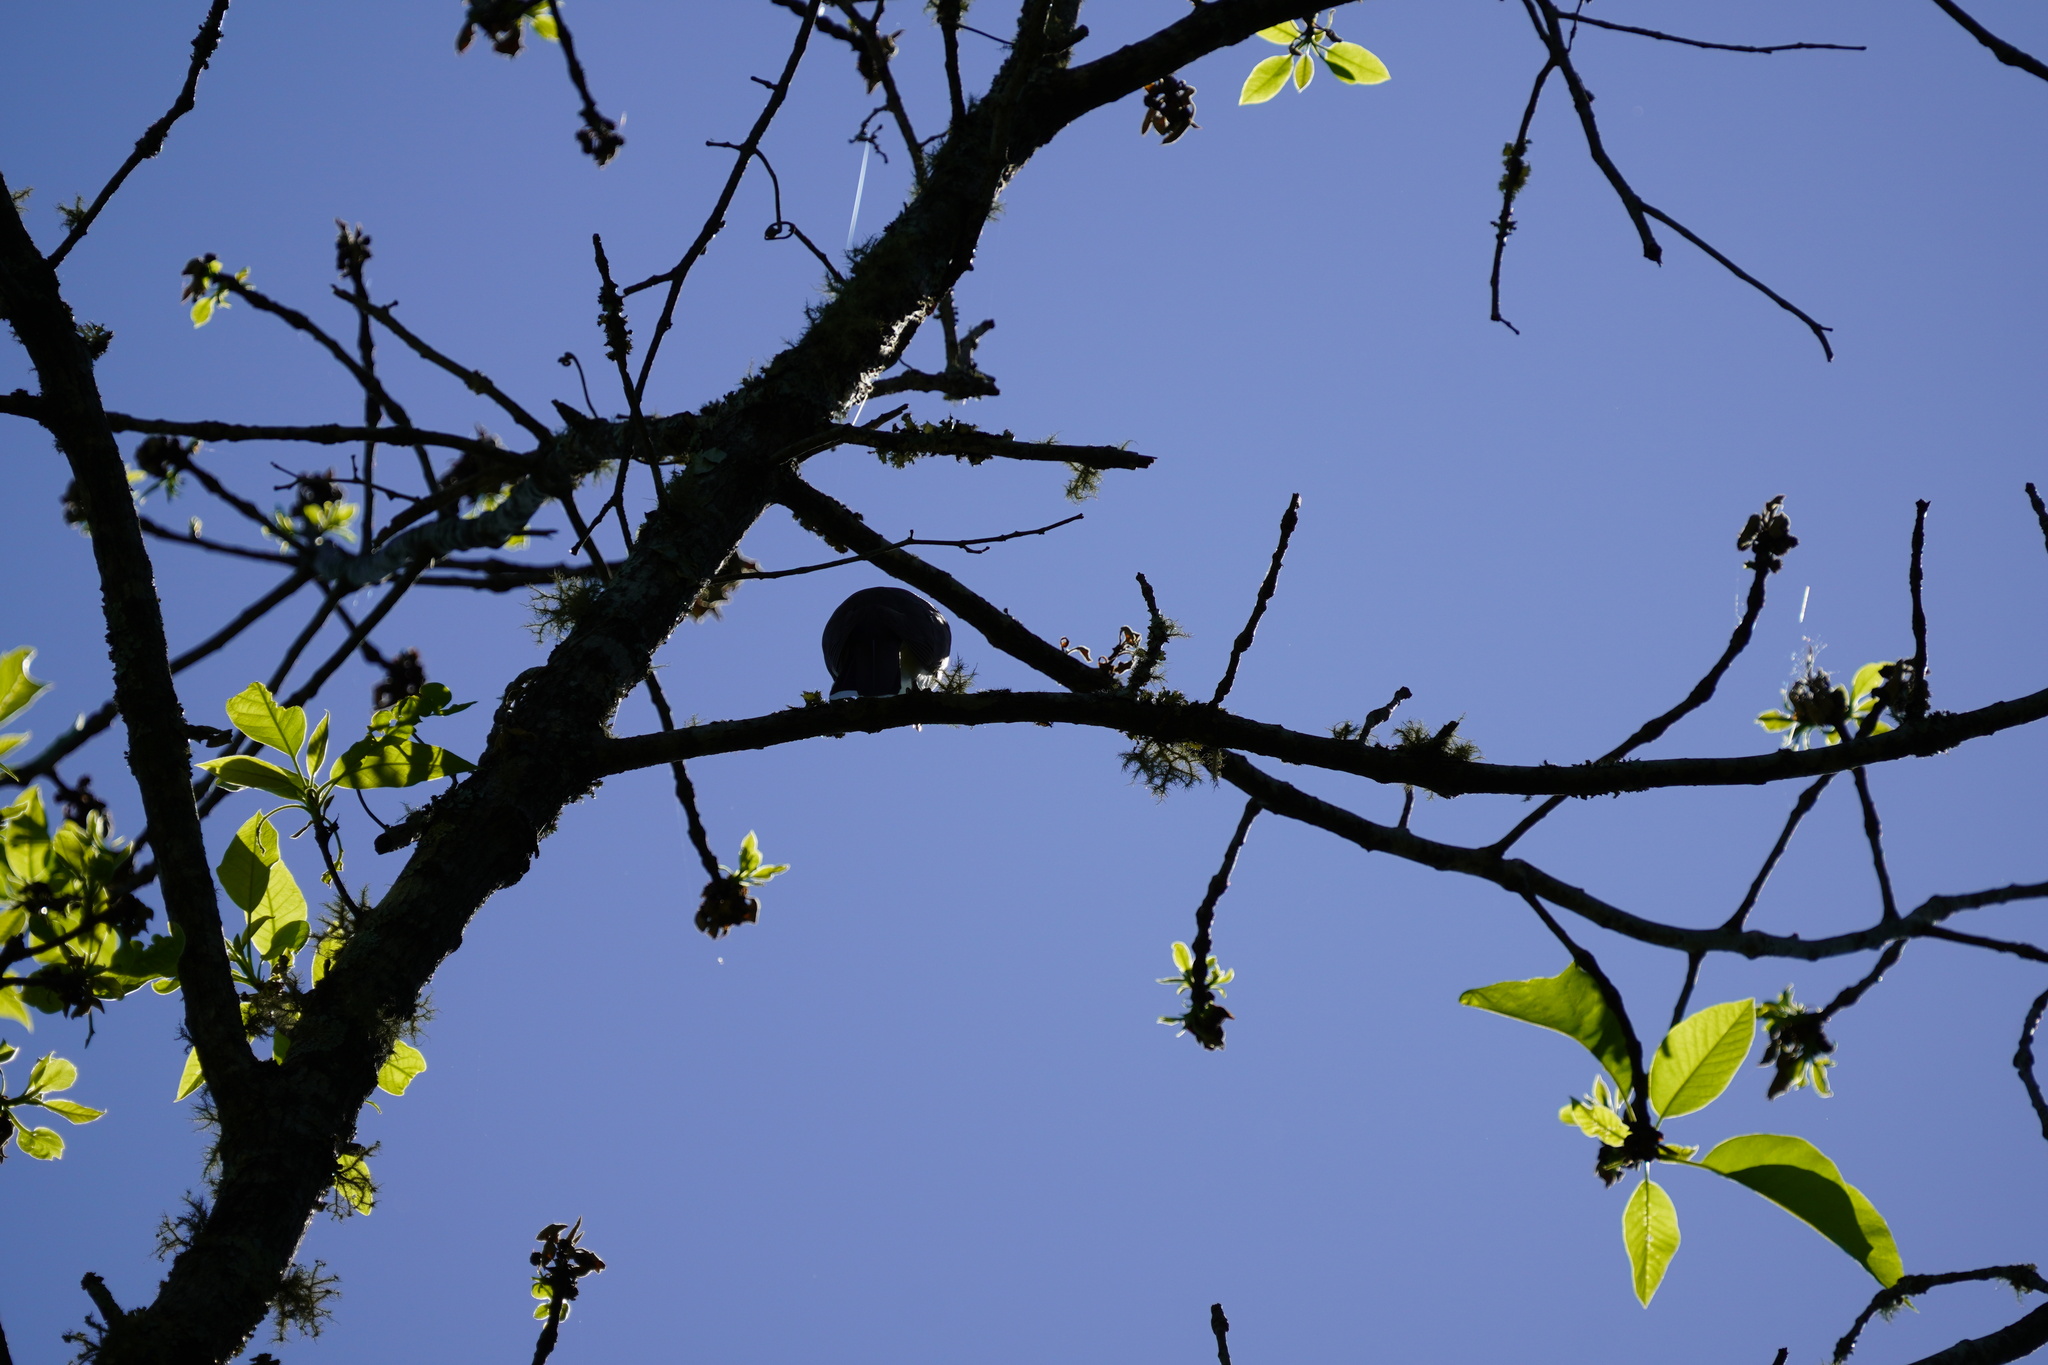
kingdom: Animalia
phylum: Chordata
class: Aves
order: Cuculiformes
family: Cuculidae
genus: Coccyzus
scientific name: Coccyzus americanus
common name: Yellow-billed cuckoo
